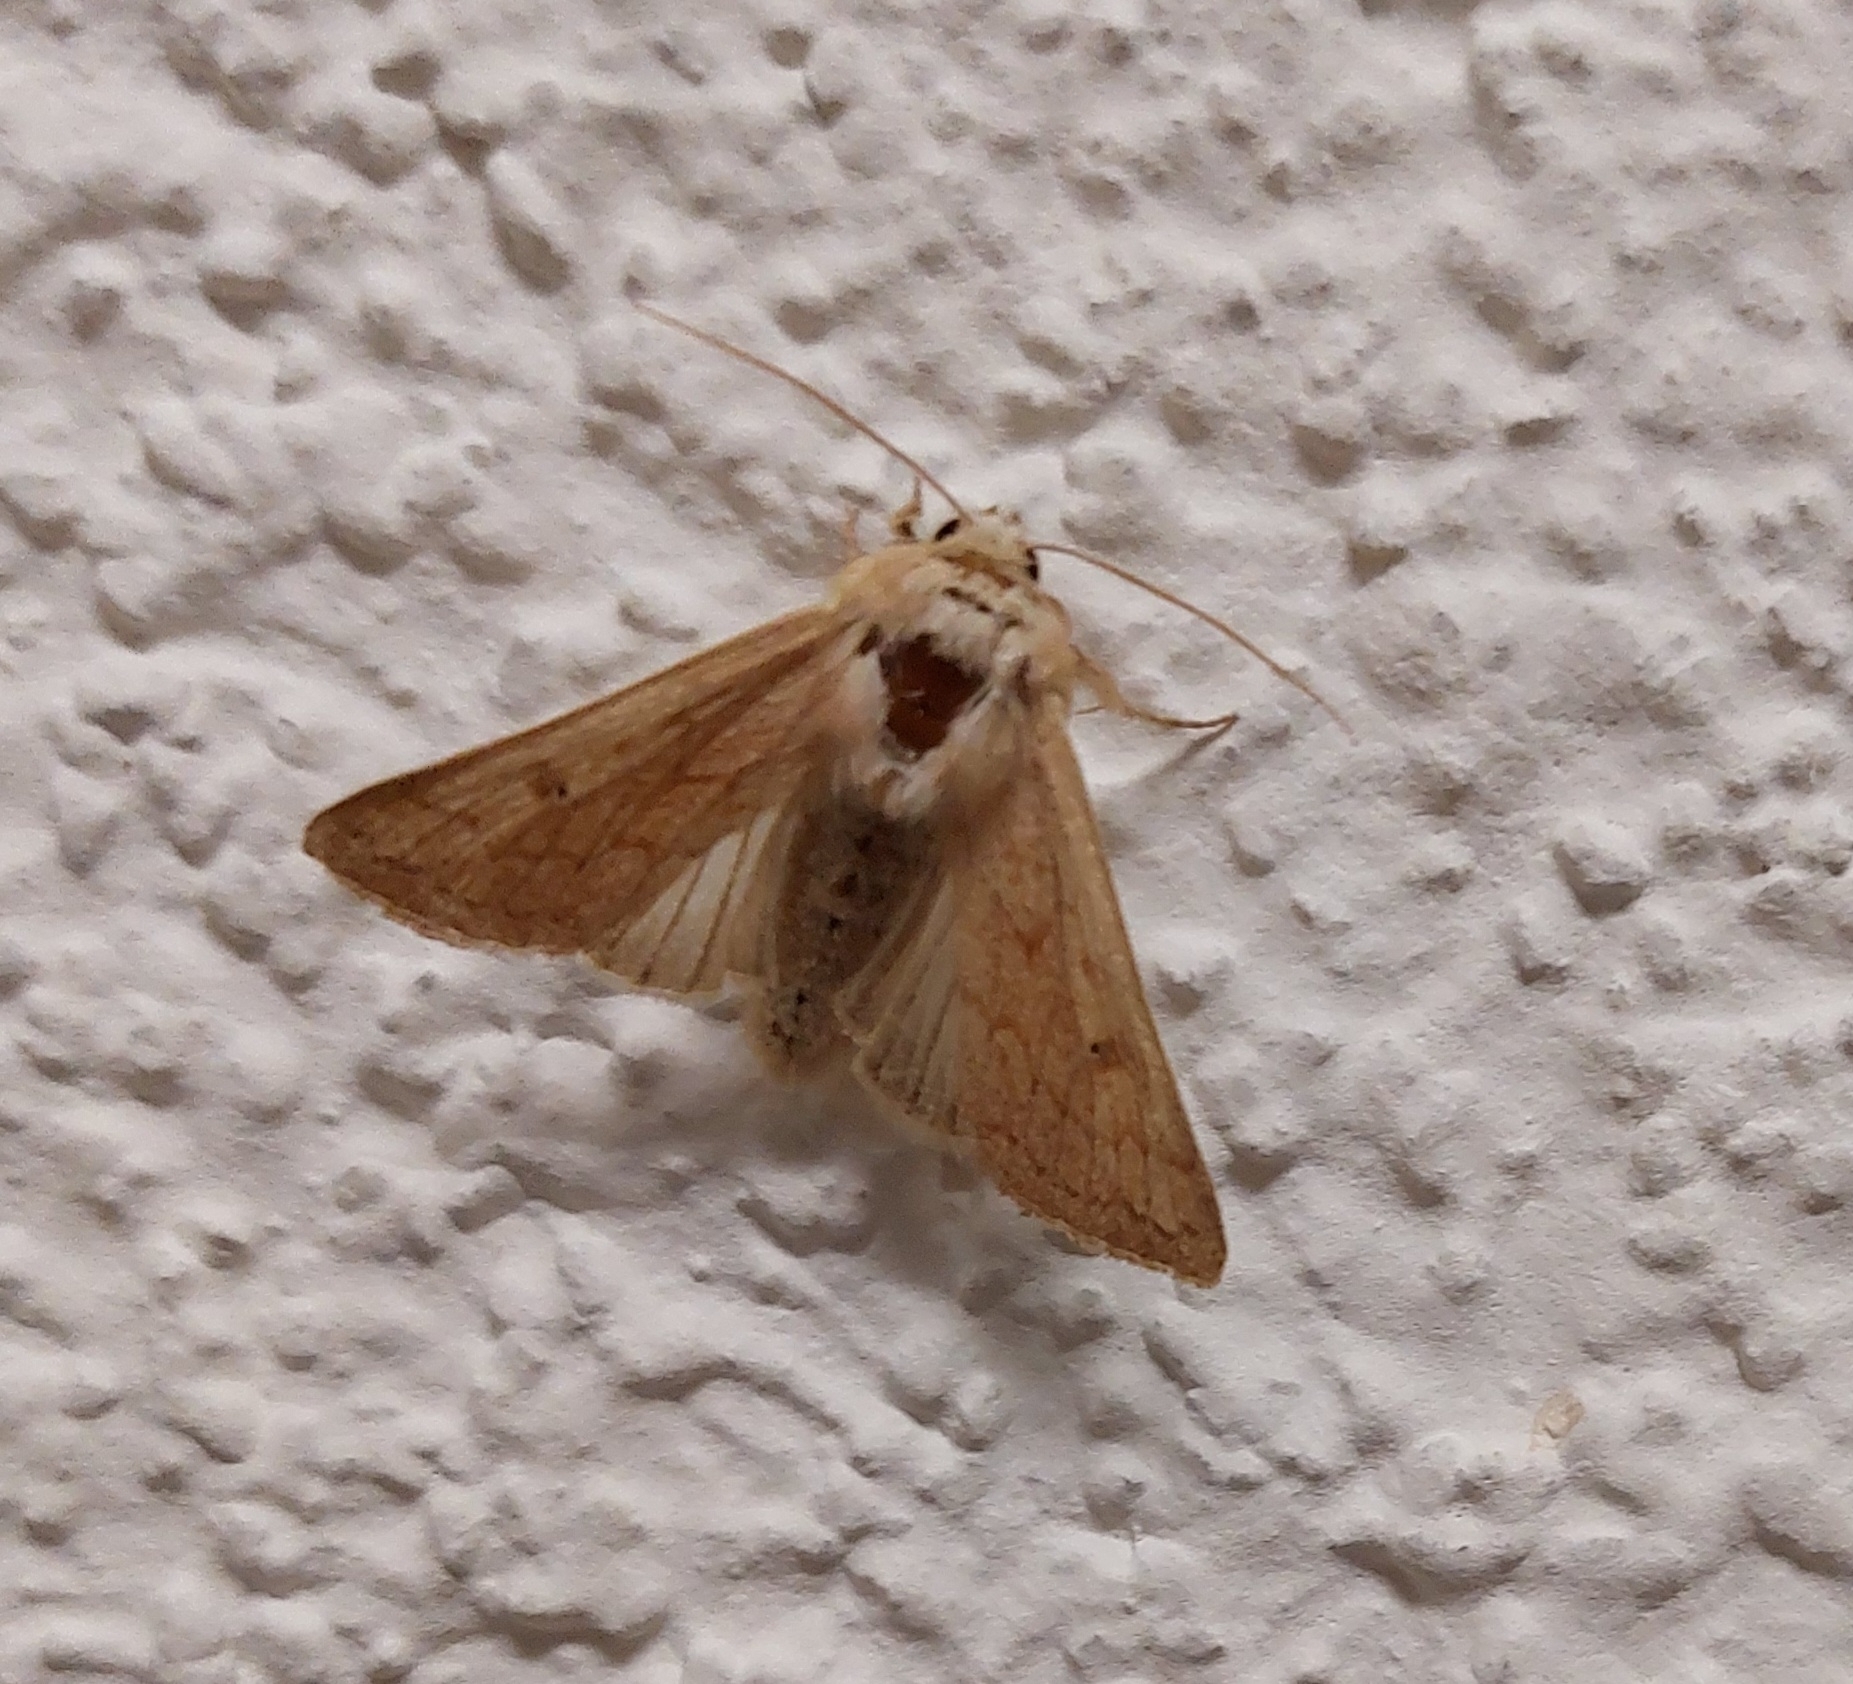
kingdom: Animalia
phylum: Arthropoda
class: Insecta
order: Lepidoptera
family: Noctuidae
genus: Mythimna
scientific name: Mythimna vitellina
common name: Delicate
